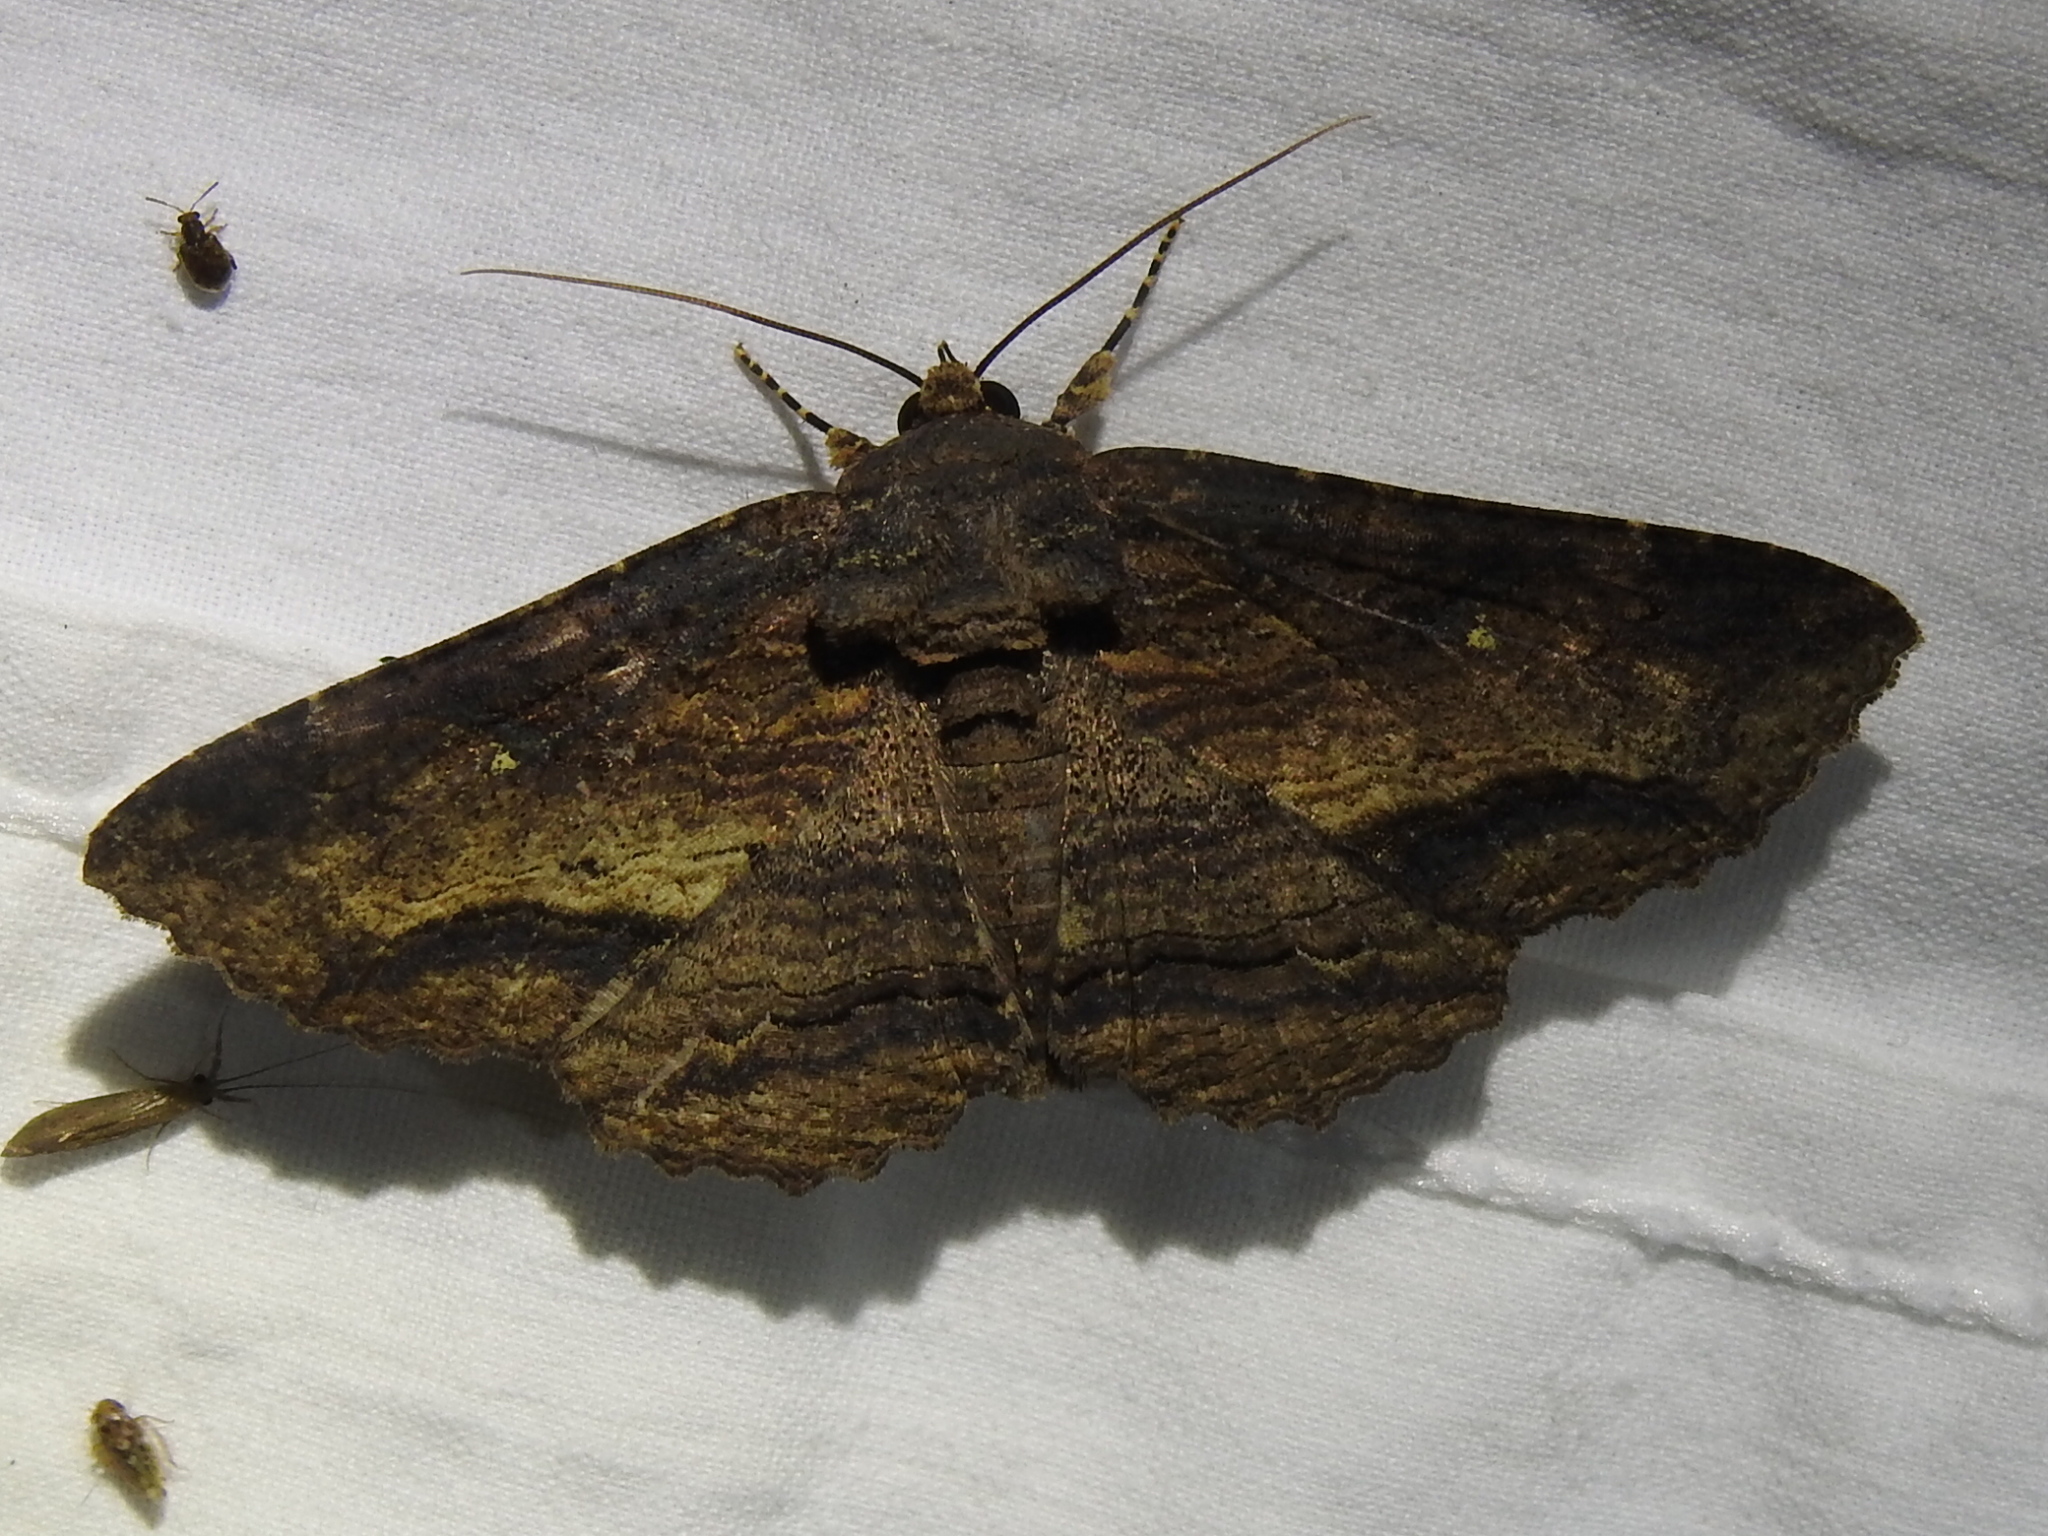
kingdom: Animalia
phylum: Arthropoda
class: Insecta
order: Lepidoptera
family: Erebidae
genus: Zale
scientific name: Zale lunata
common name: Lunate zale moth
